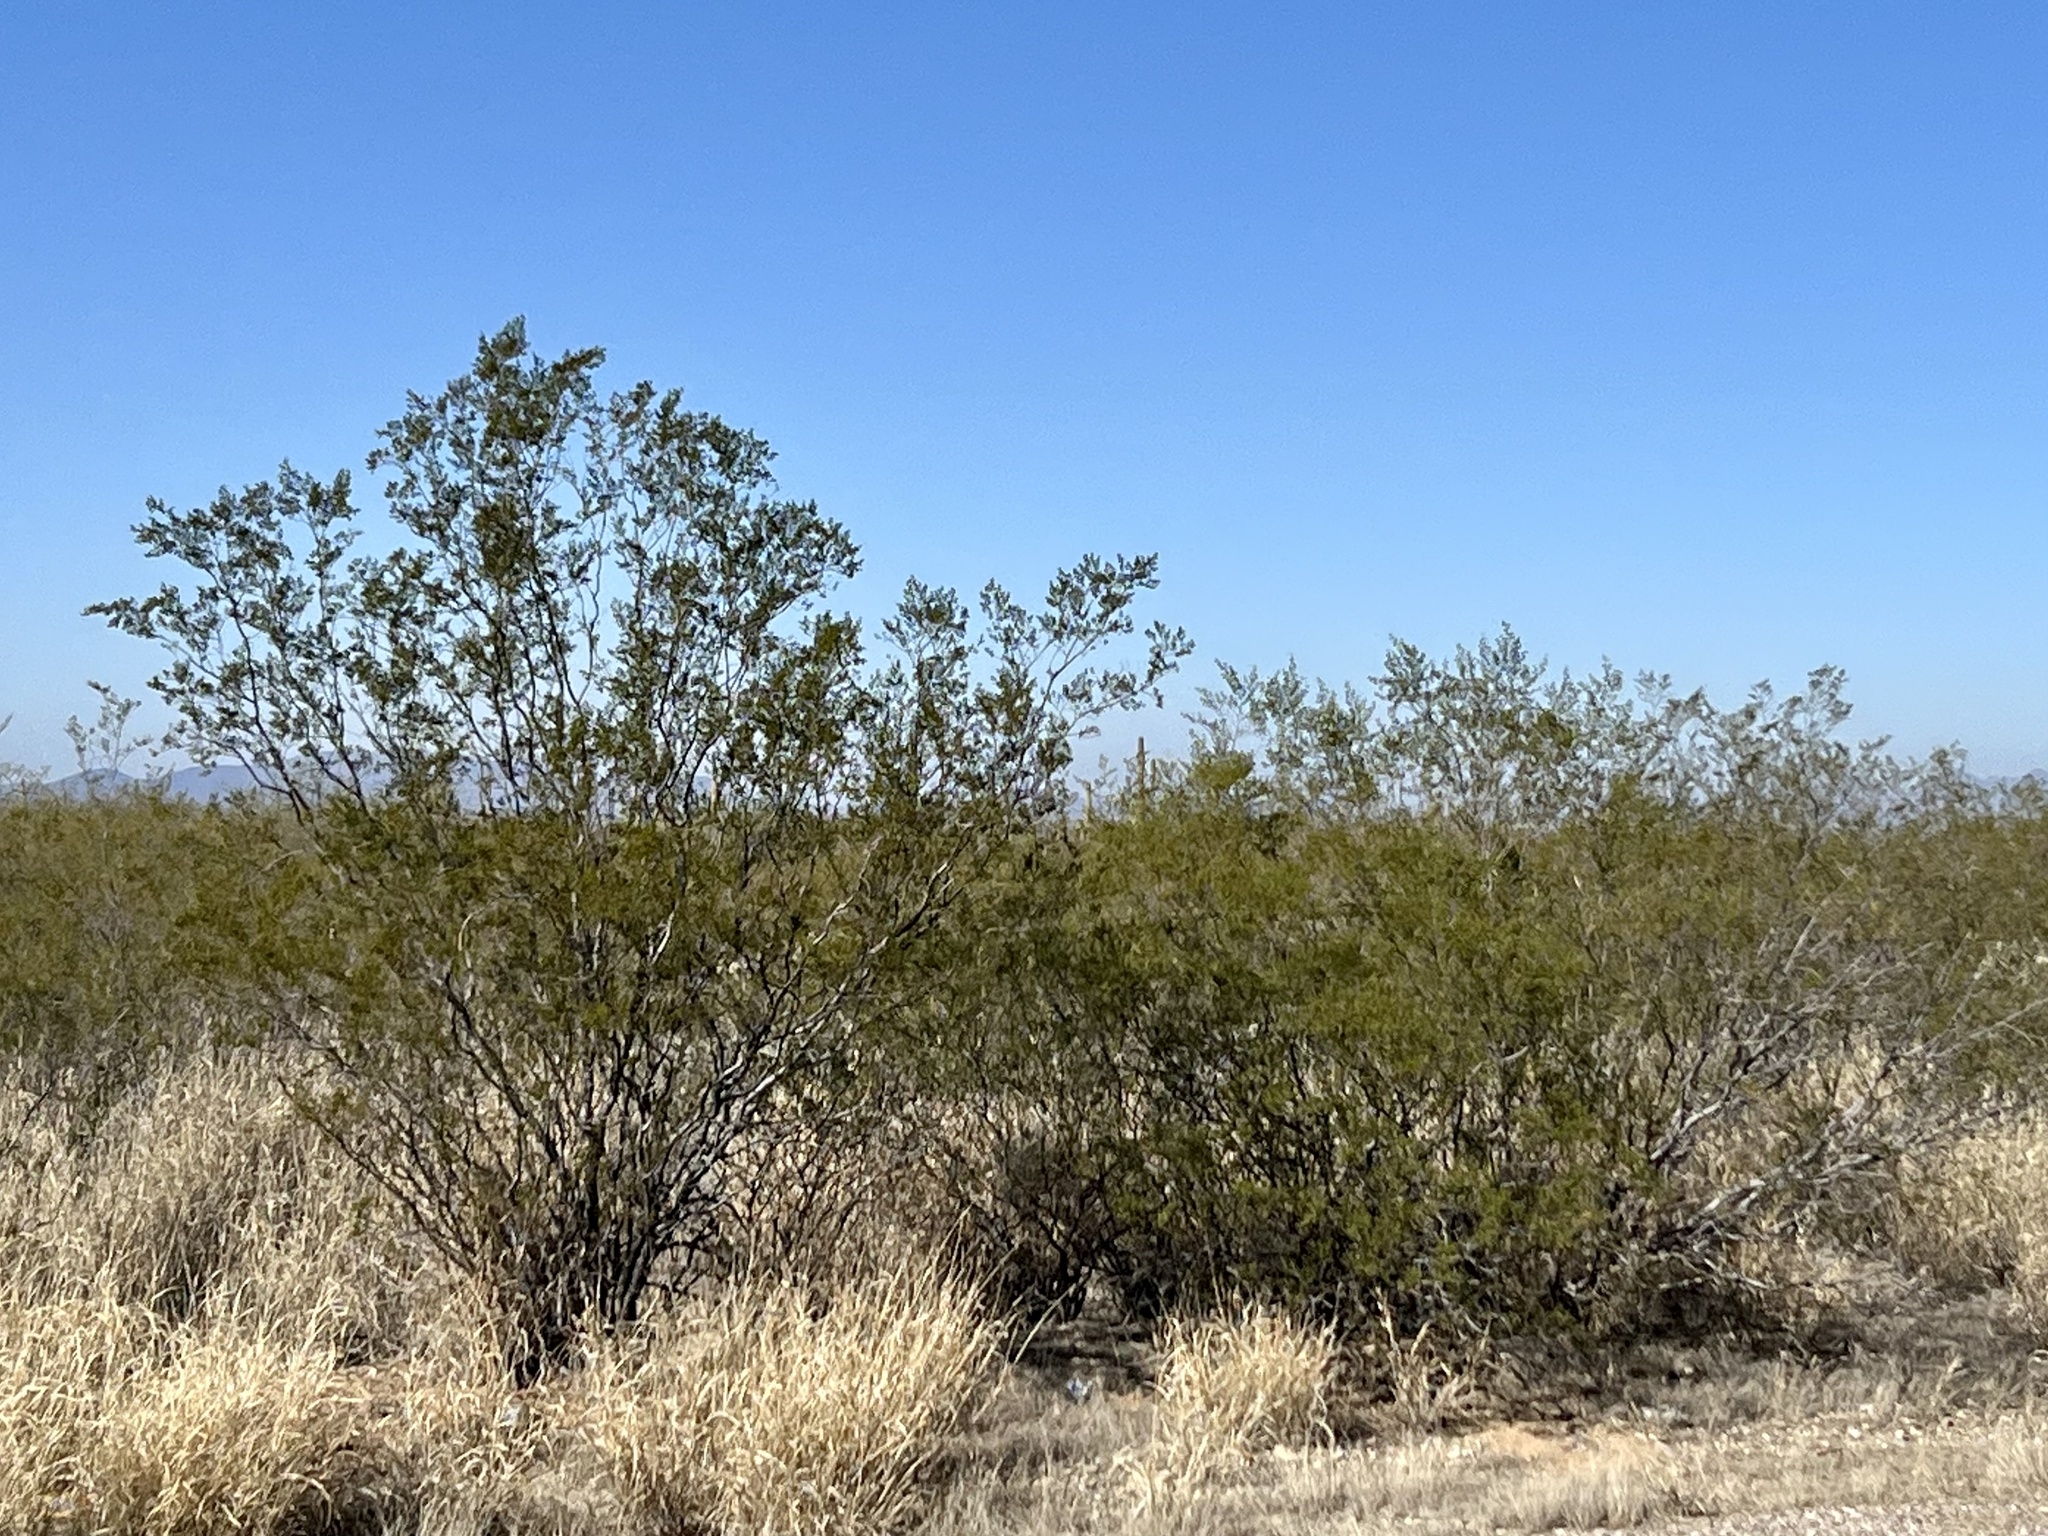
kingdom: Plantae
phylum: Tracheophyta
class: Magnoliopsida
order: Zygophyllales
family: Zygophyllaceae
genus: Larrea
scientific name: Larrea tridentata
